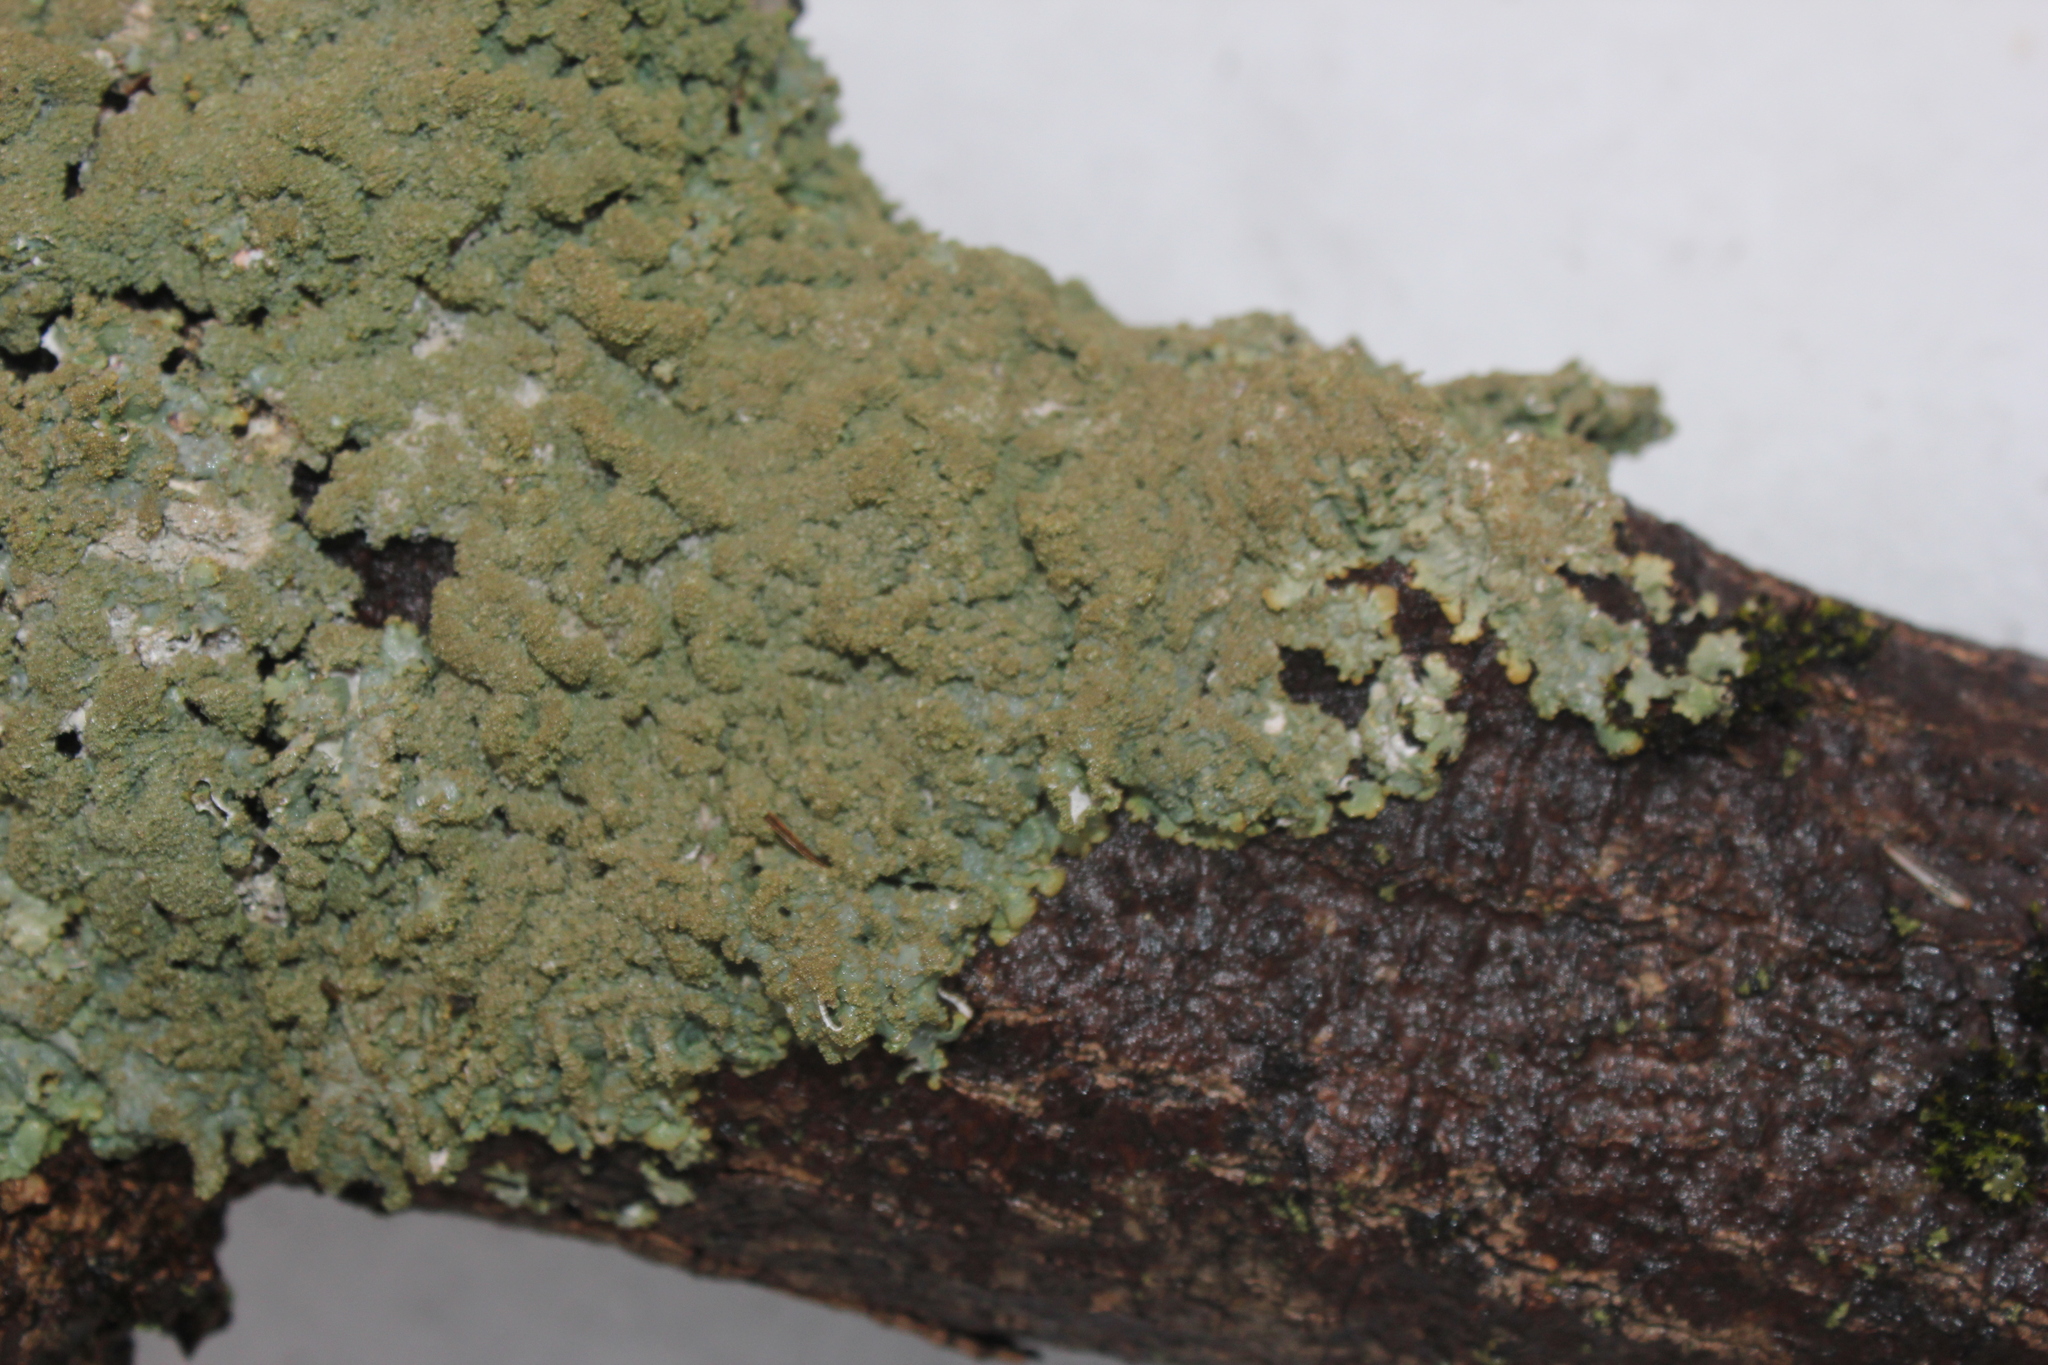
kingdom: Fungi
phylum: Ascomycota
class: Lecanoromycetes
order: Lecanorales
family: Parmeliaceae
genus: Punctelia
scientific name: Punctelia rudecta
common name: Rough speckled shield lichen
